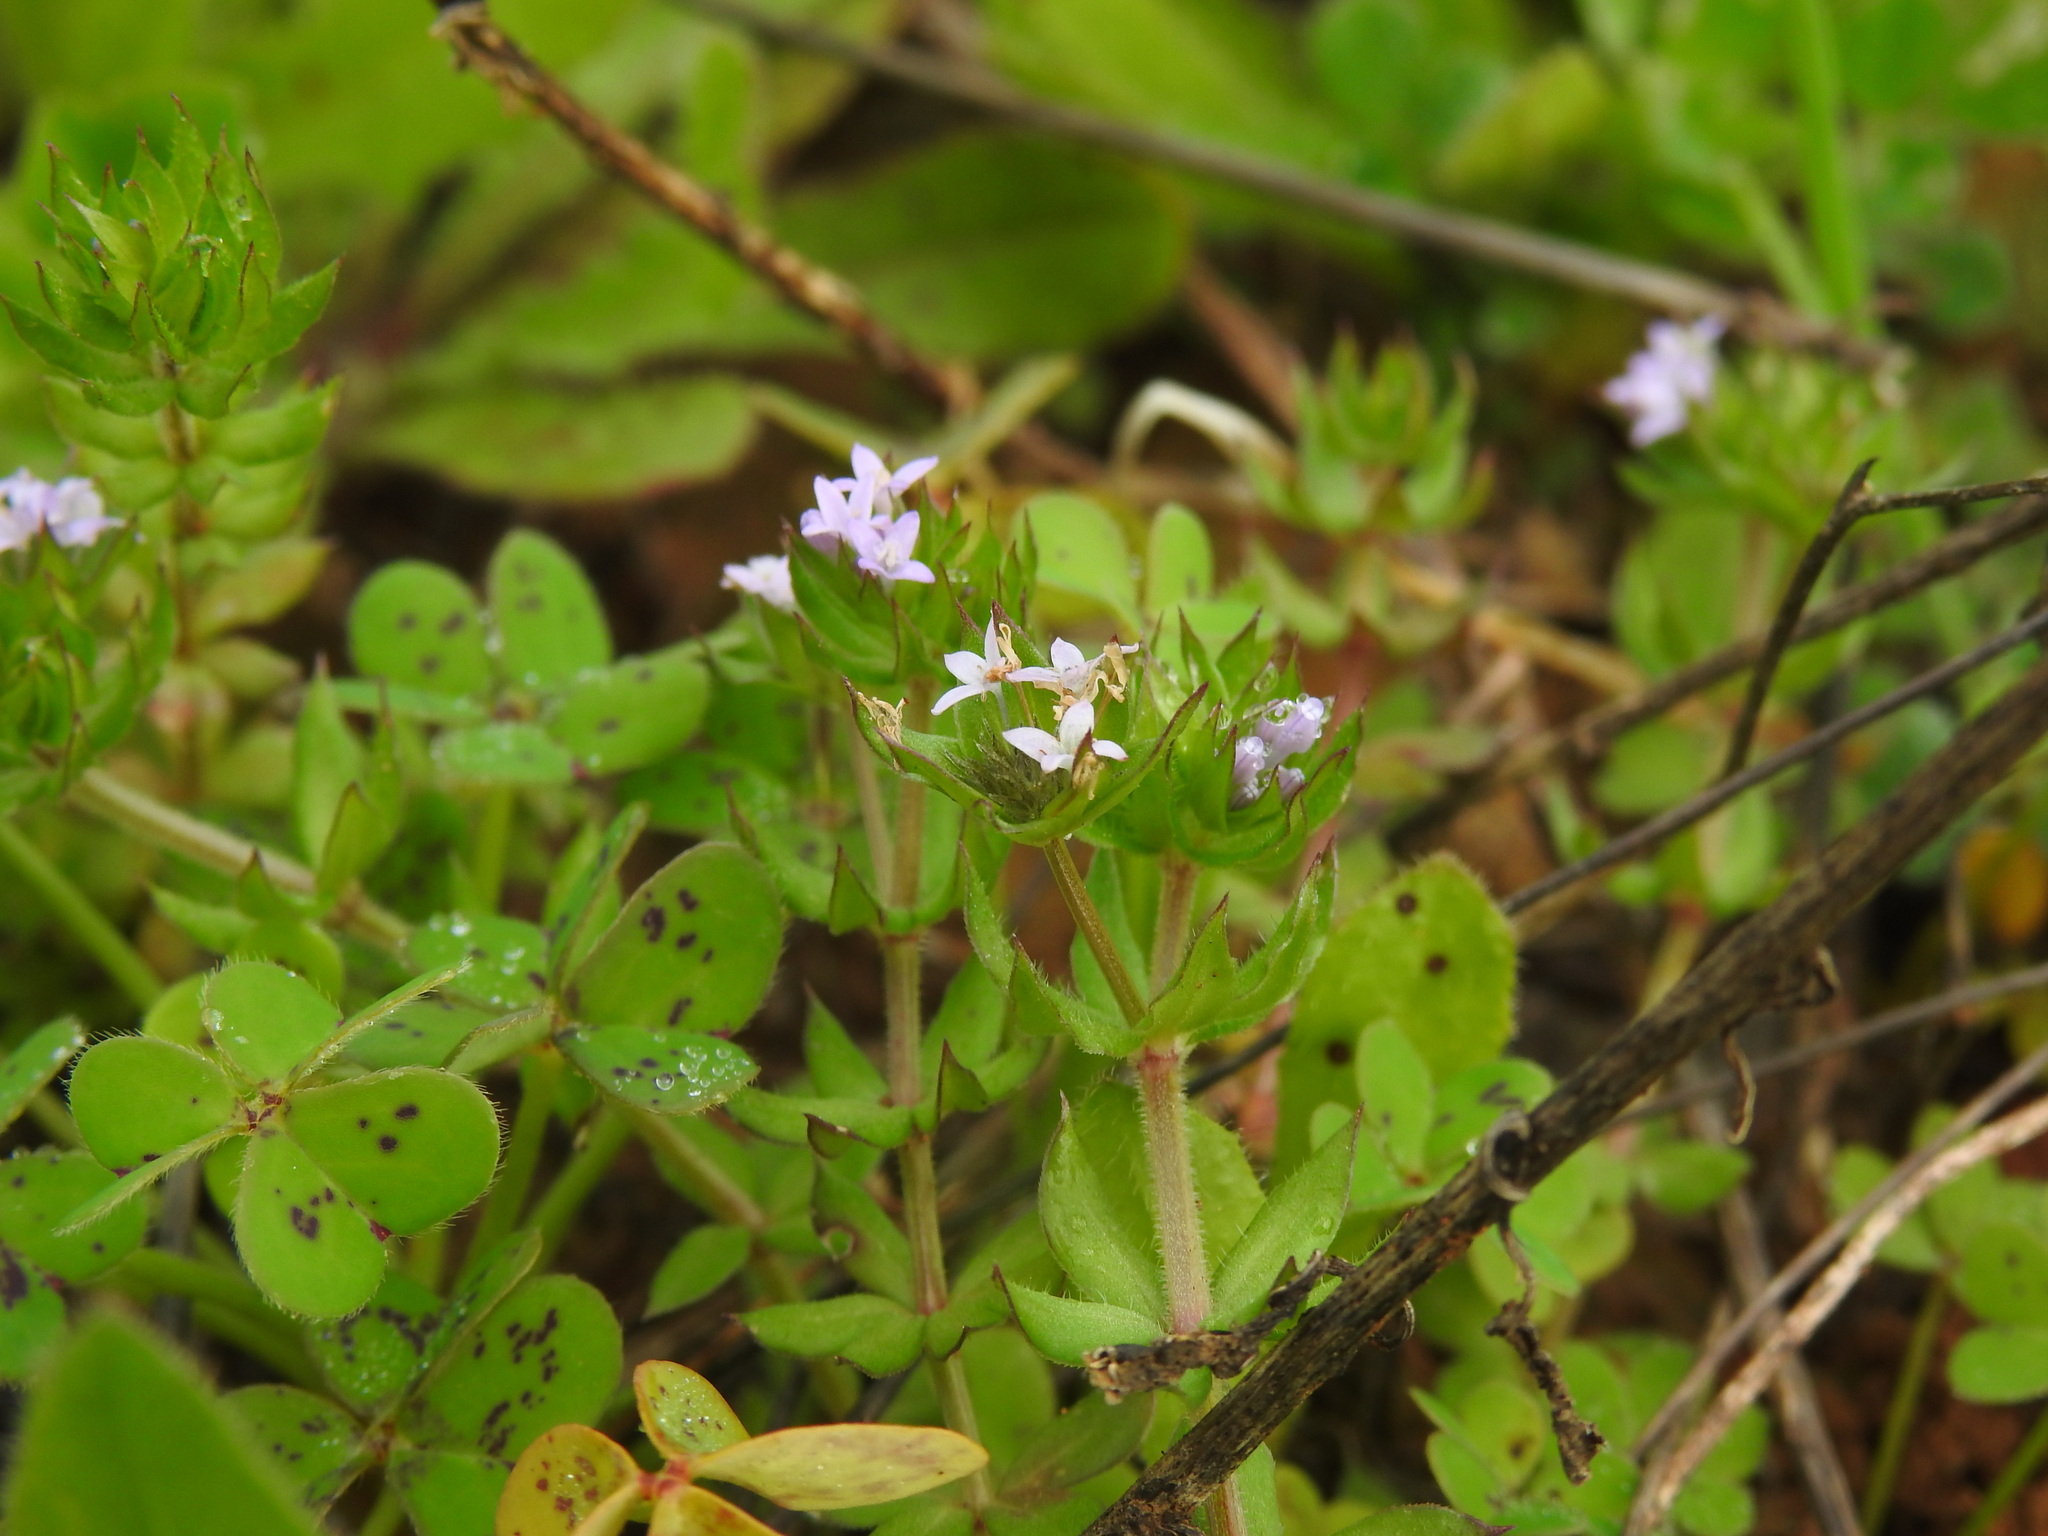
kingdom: Plantae
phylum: Tracheophyta
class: Magnoliopsida
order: Gentianales
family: Rubiaceae
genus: Sherardia
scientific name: Sherardia arvensis
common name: Field madder
